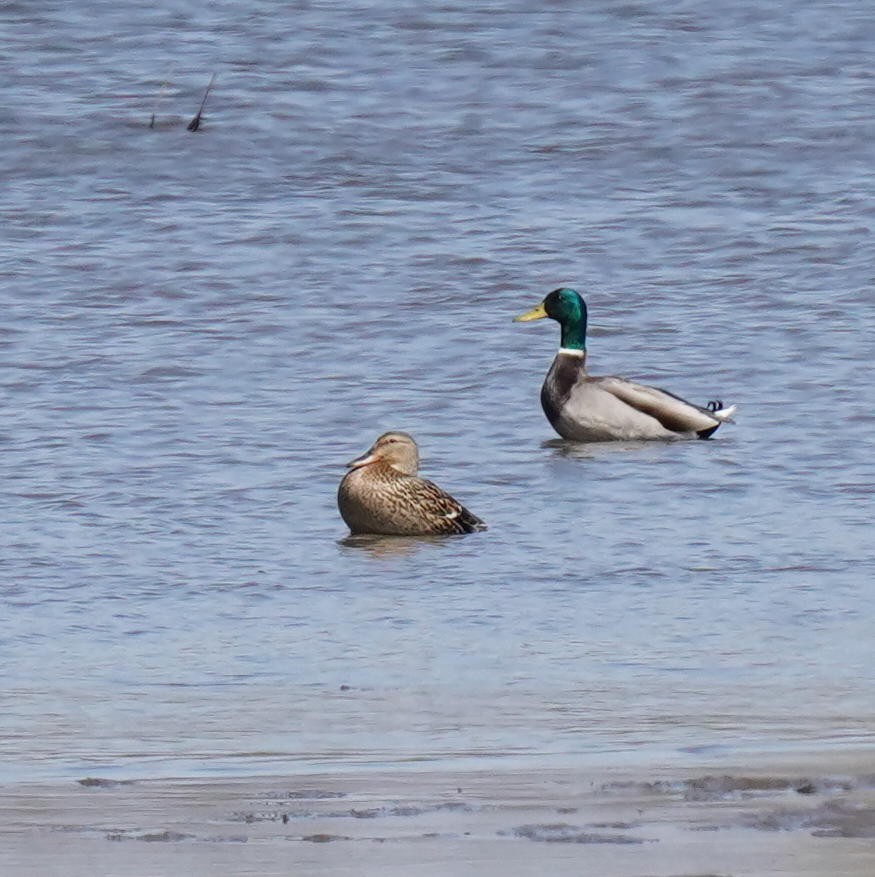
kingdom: Animalia
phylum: Chordata
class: Aves
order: Anseriformes
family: Anatidae
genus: Anas
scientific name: Anas platyrhynchos
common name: Mallard
